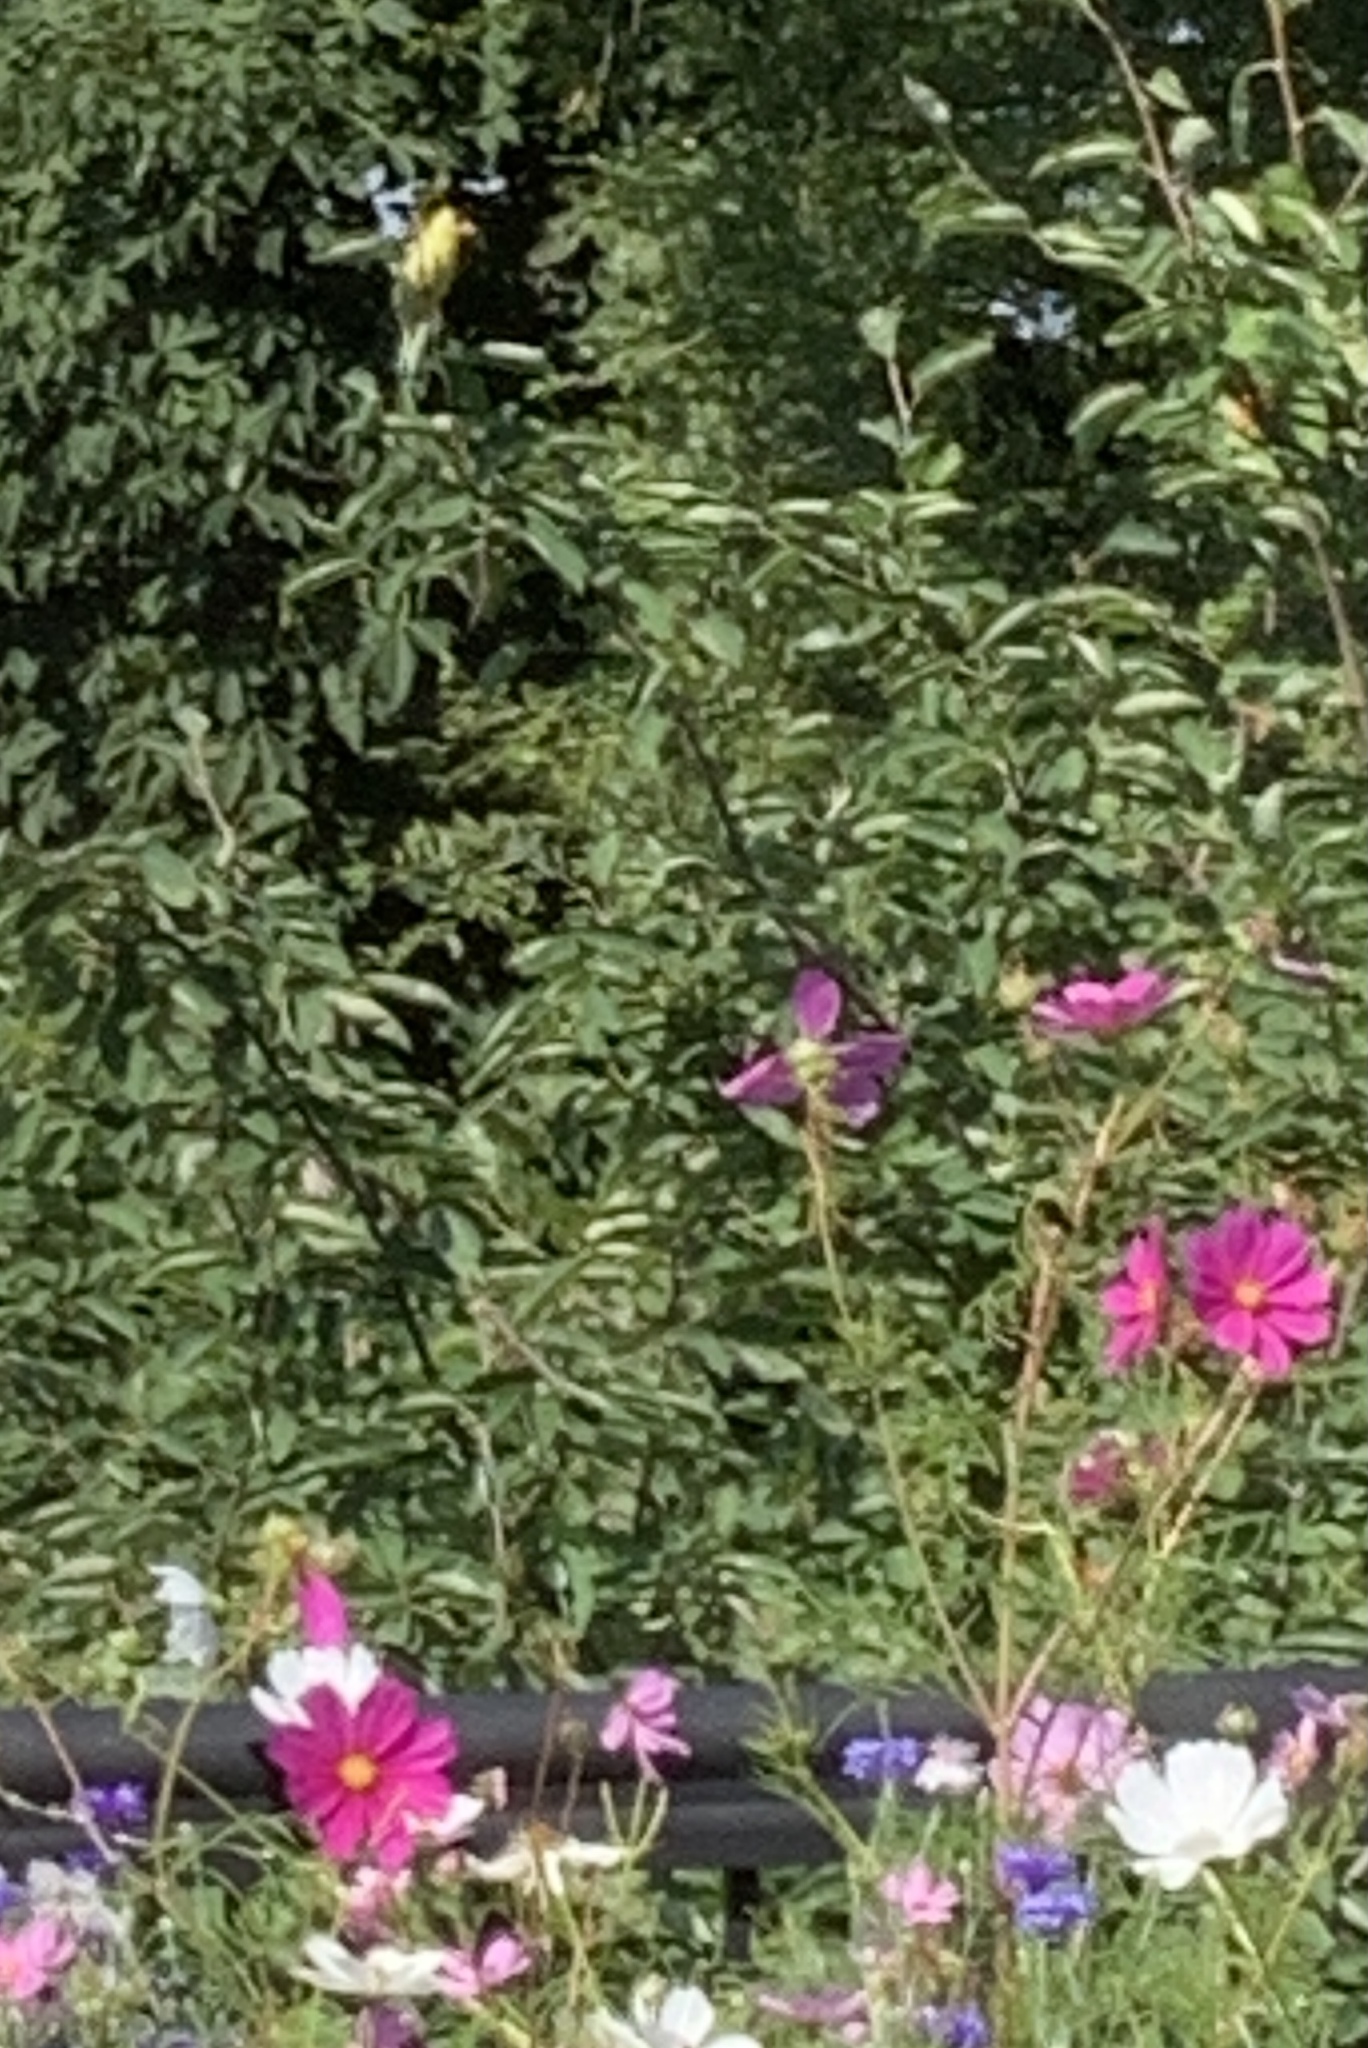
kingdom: Animalia
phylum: Chordata
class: Aves
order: Passeriformes
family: Fringillidae
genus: Spinus
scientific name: Spinus tristis
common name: American goldfinch
